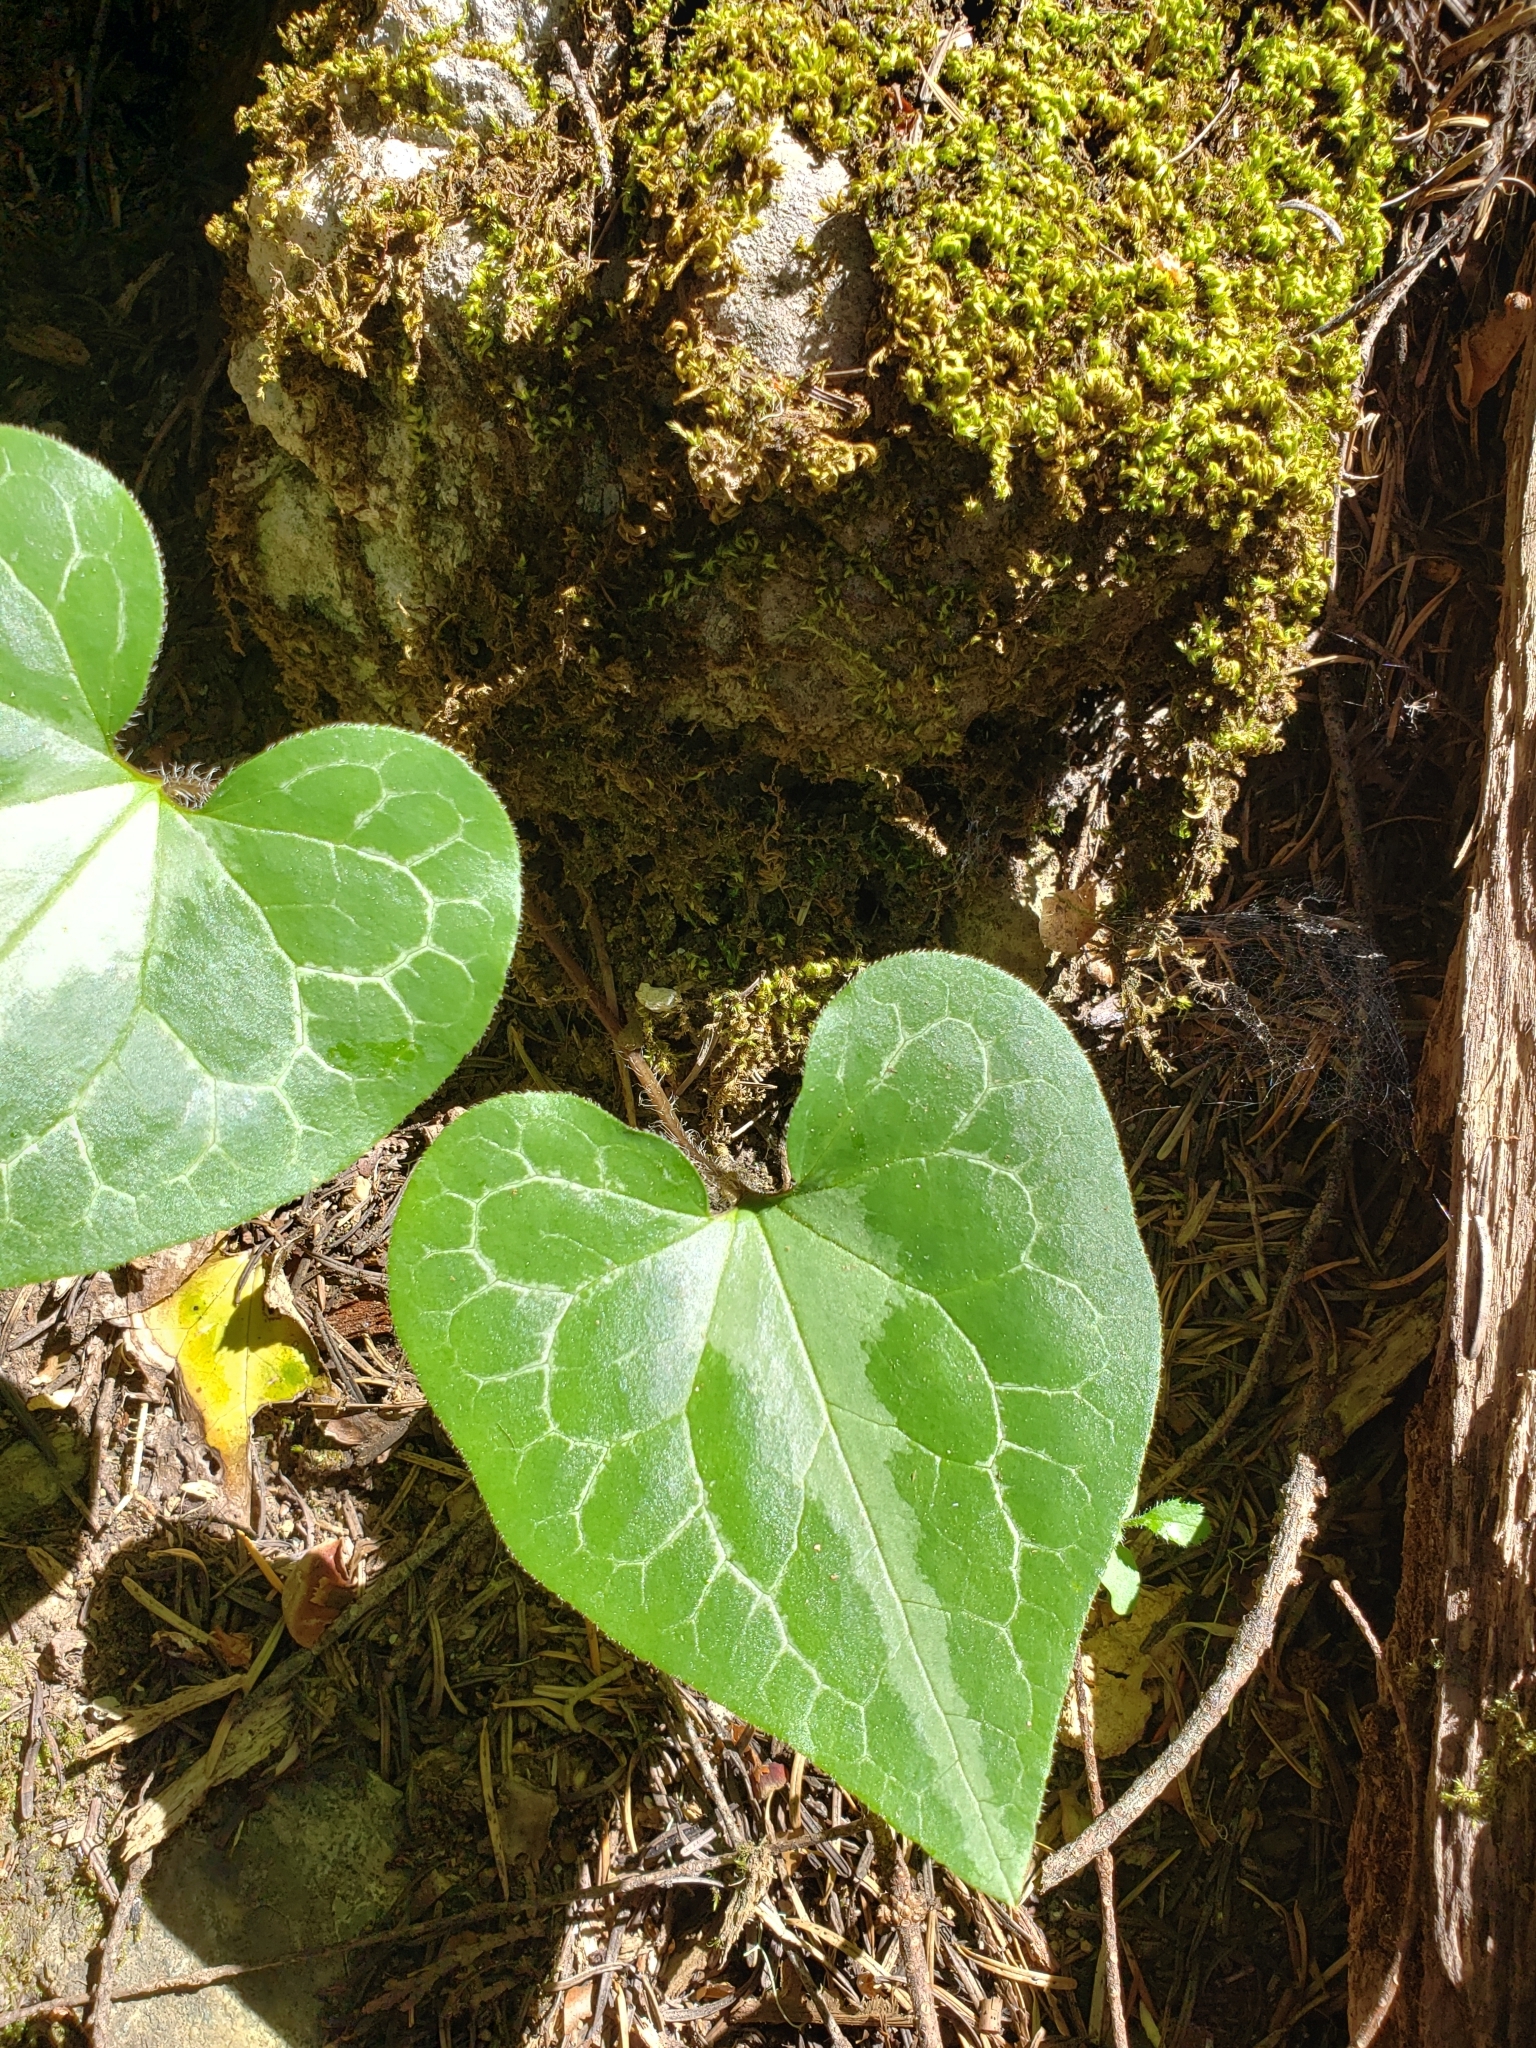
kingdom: Plantae
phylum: Tracheophyta
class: Magnoliopsida
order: Piperales
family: Aristolochiaceae
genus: Asarum
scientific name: Asarum marmoratum
